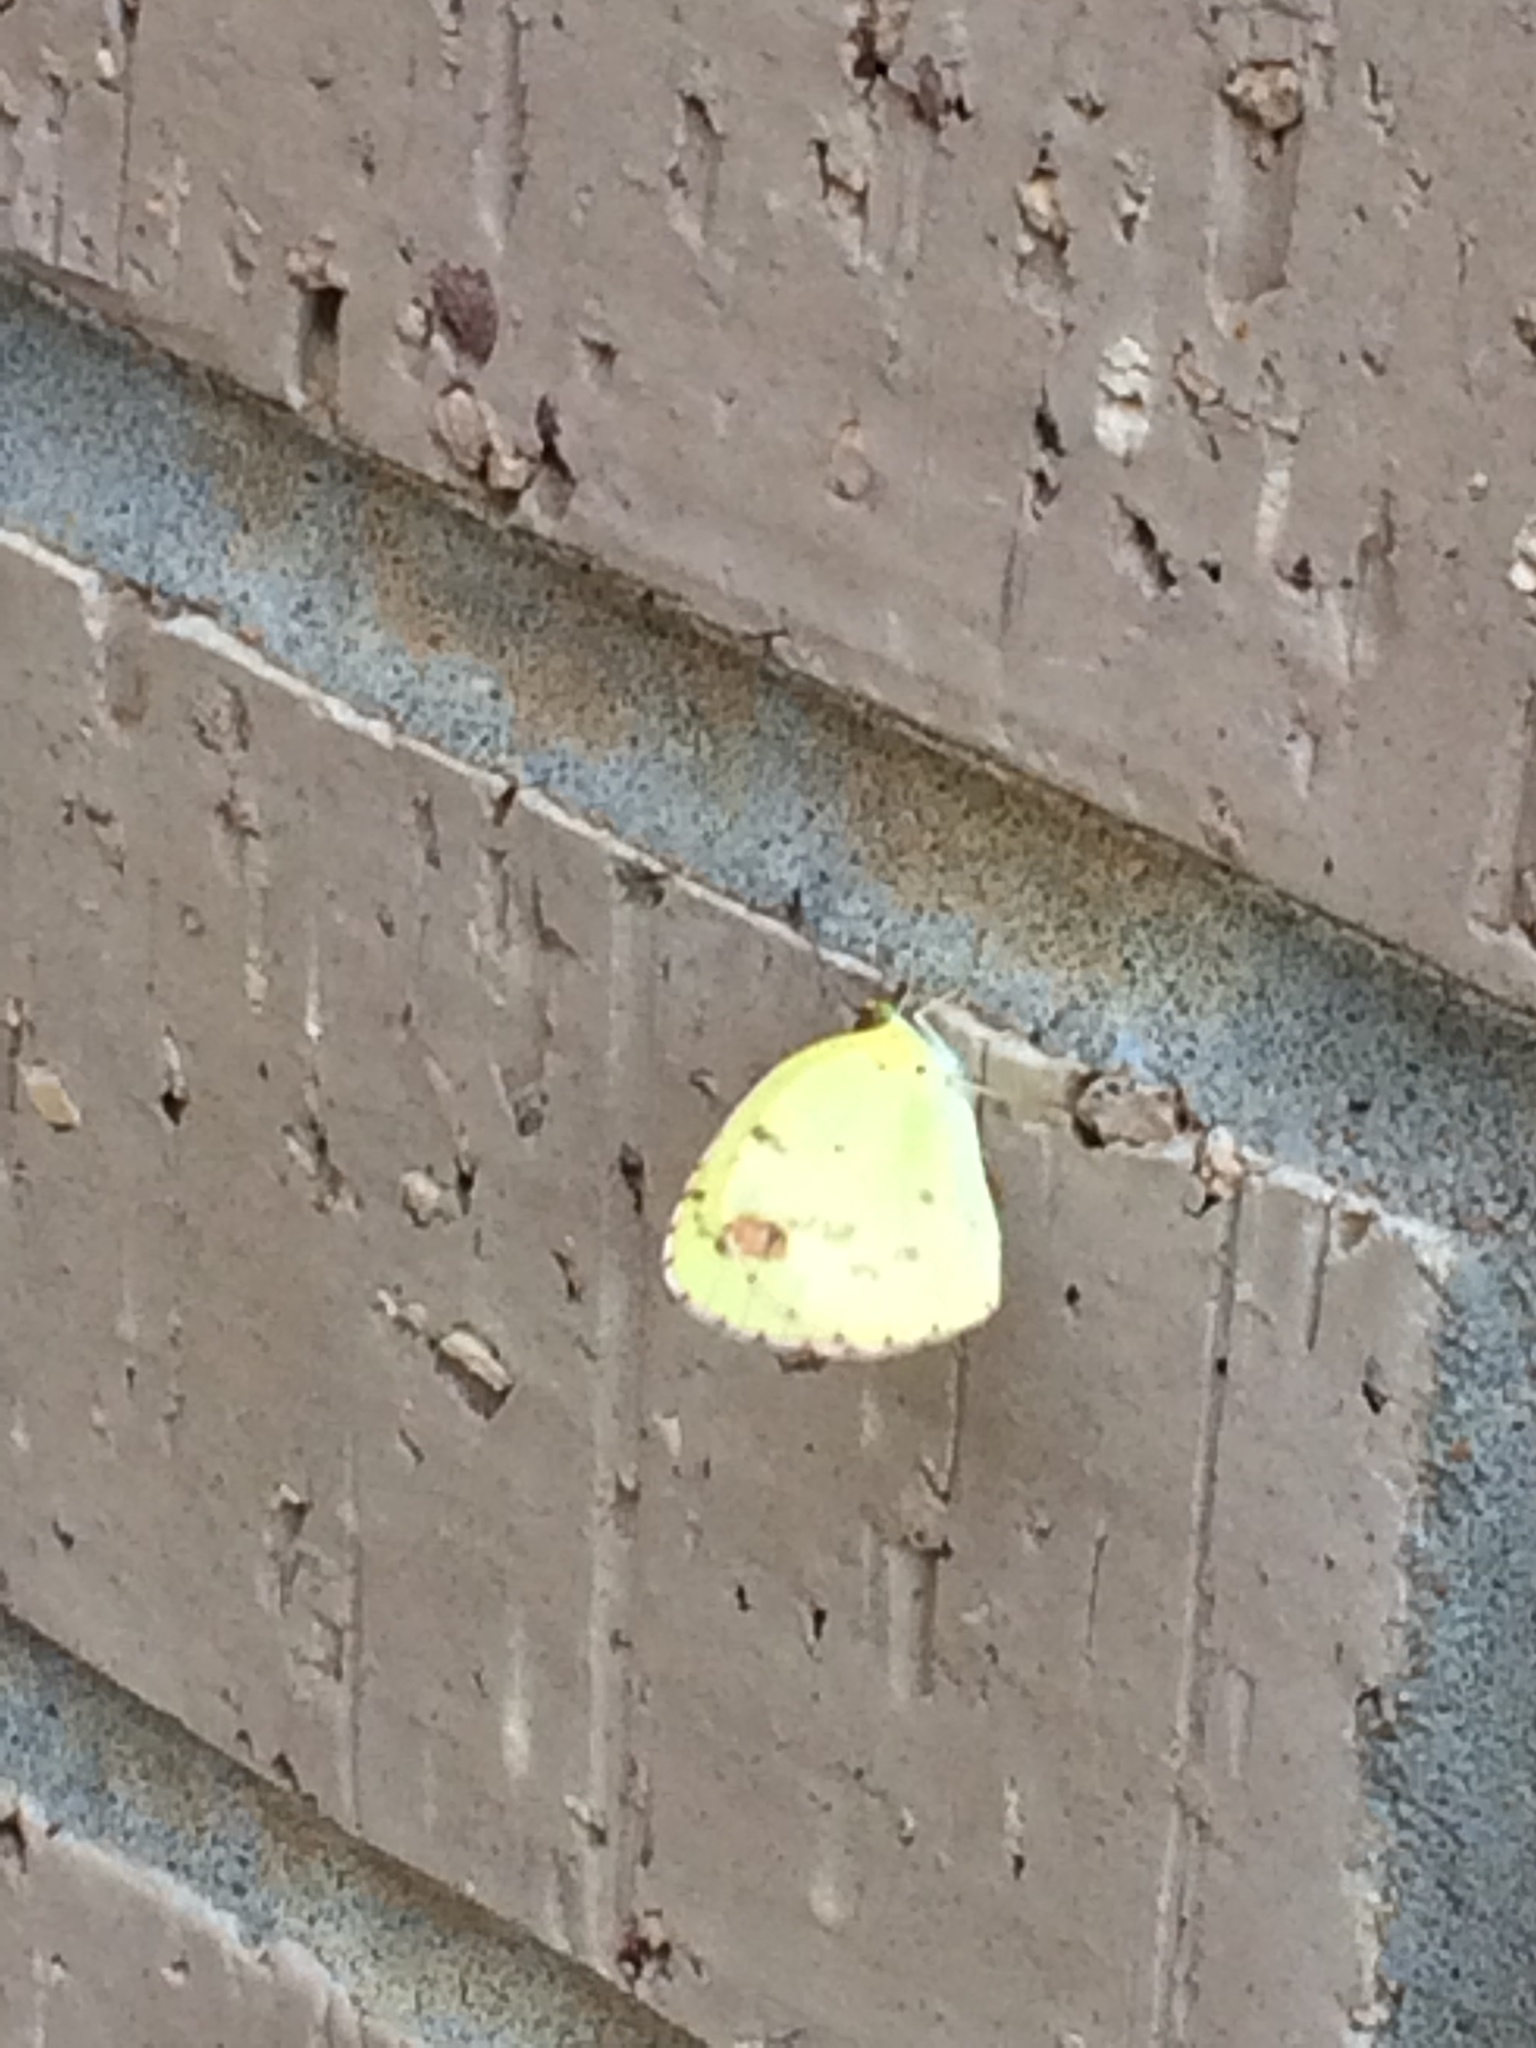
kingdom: Animalia
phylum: Arthropoda
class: Insecta
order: Lepidoptera
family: Pieridae
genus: Pyrisitia
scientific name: Pyrisitia lisa
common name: Little yellow
